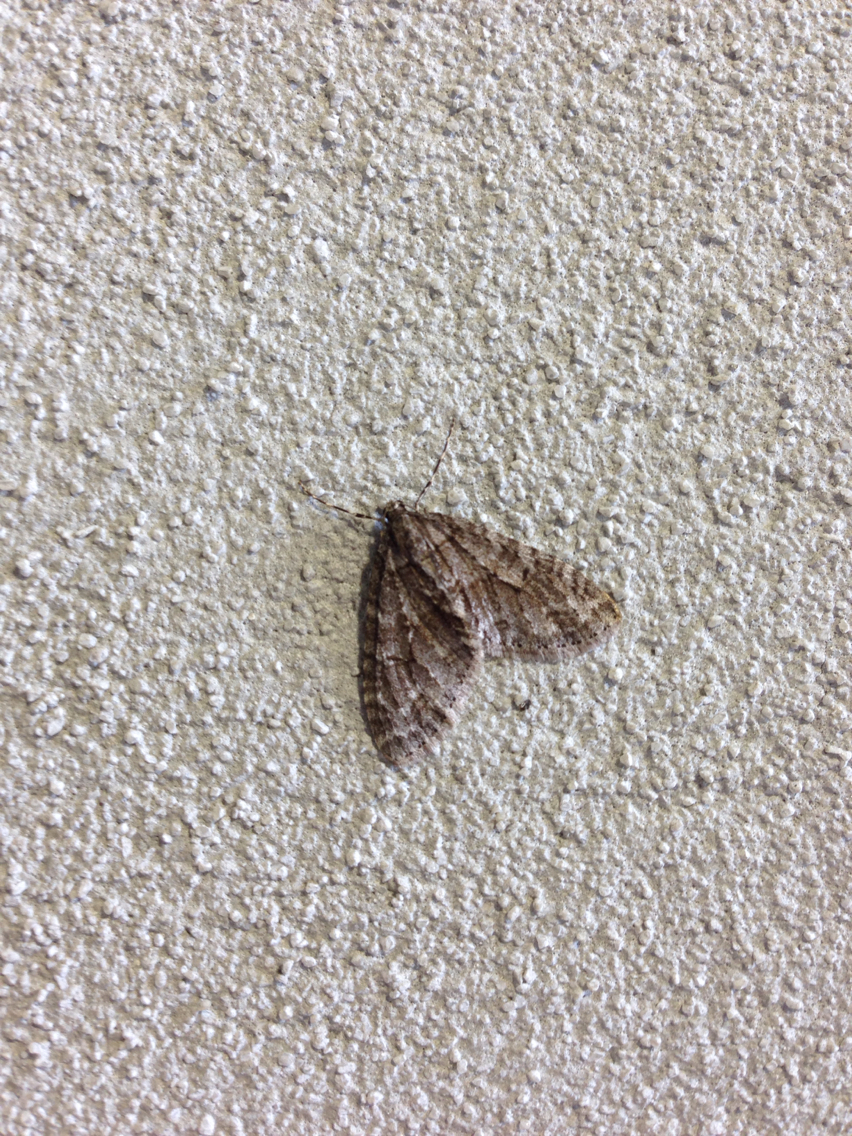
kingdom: Animalia
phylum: Arthropoda
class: Insecta
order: Lepidoptera
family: Geometridae
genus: Cladara
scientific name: Cladara limitaria
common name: Mottled gray carpet
